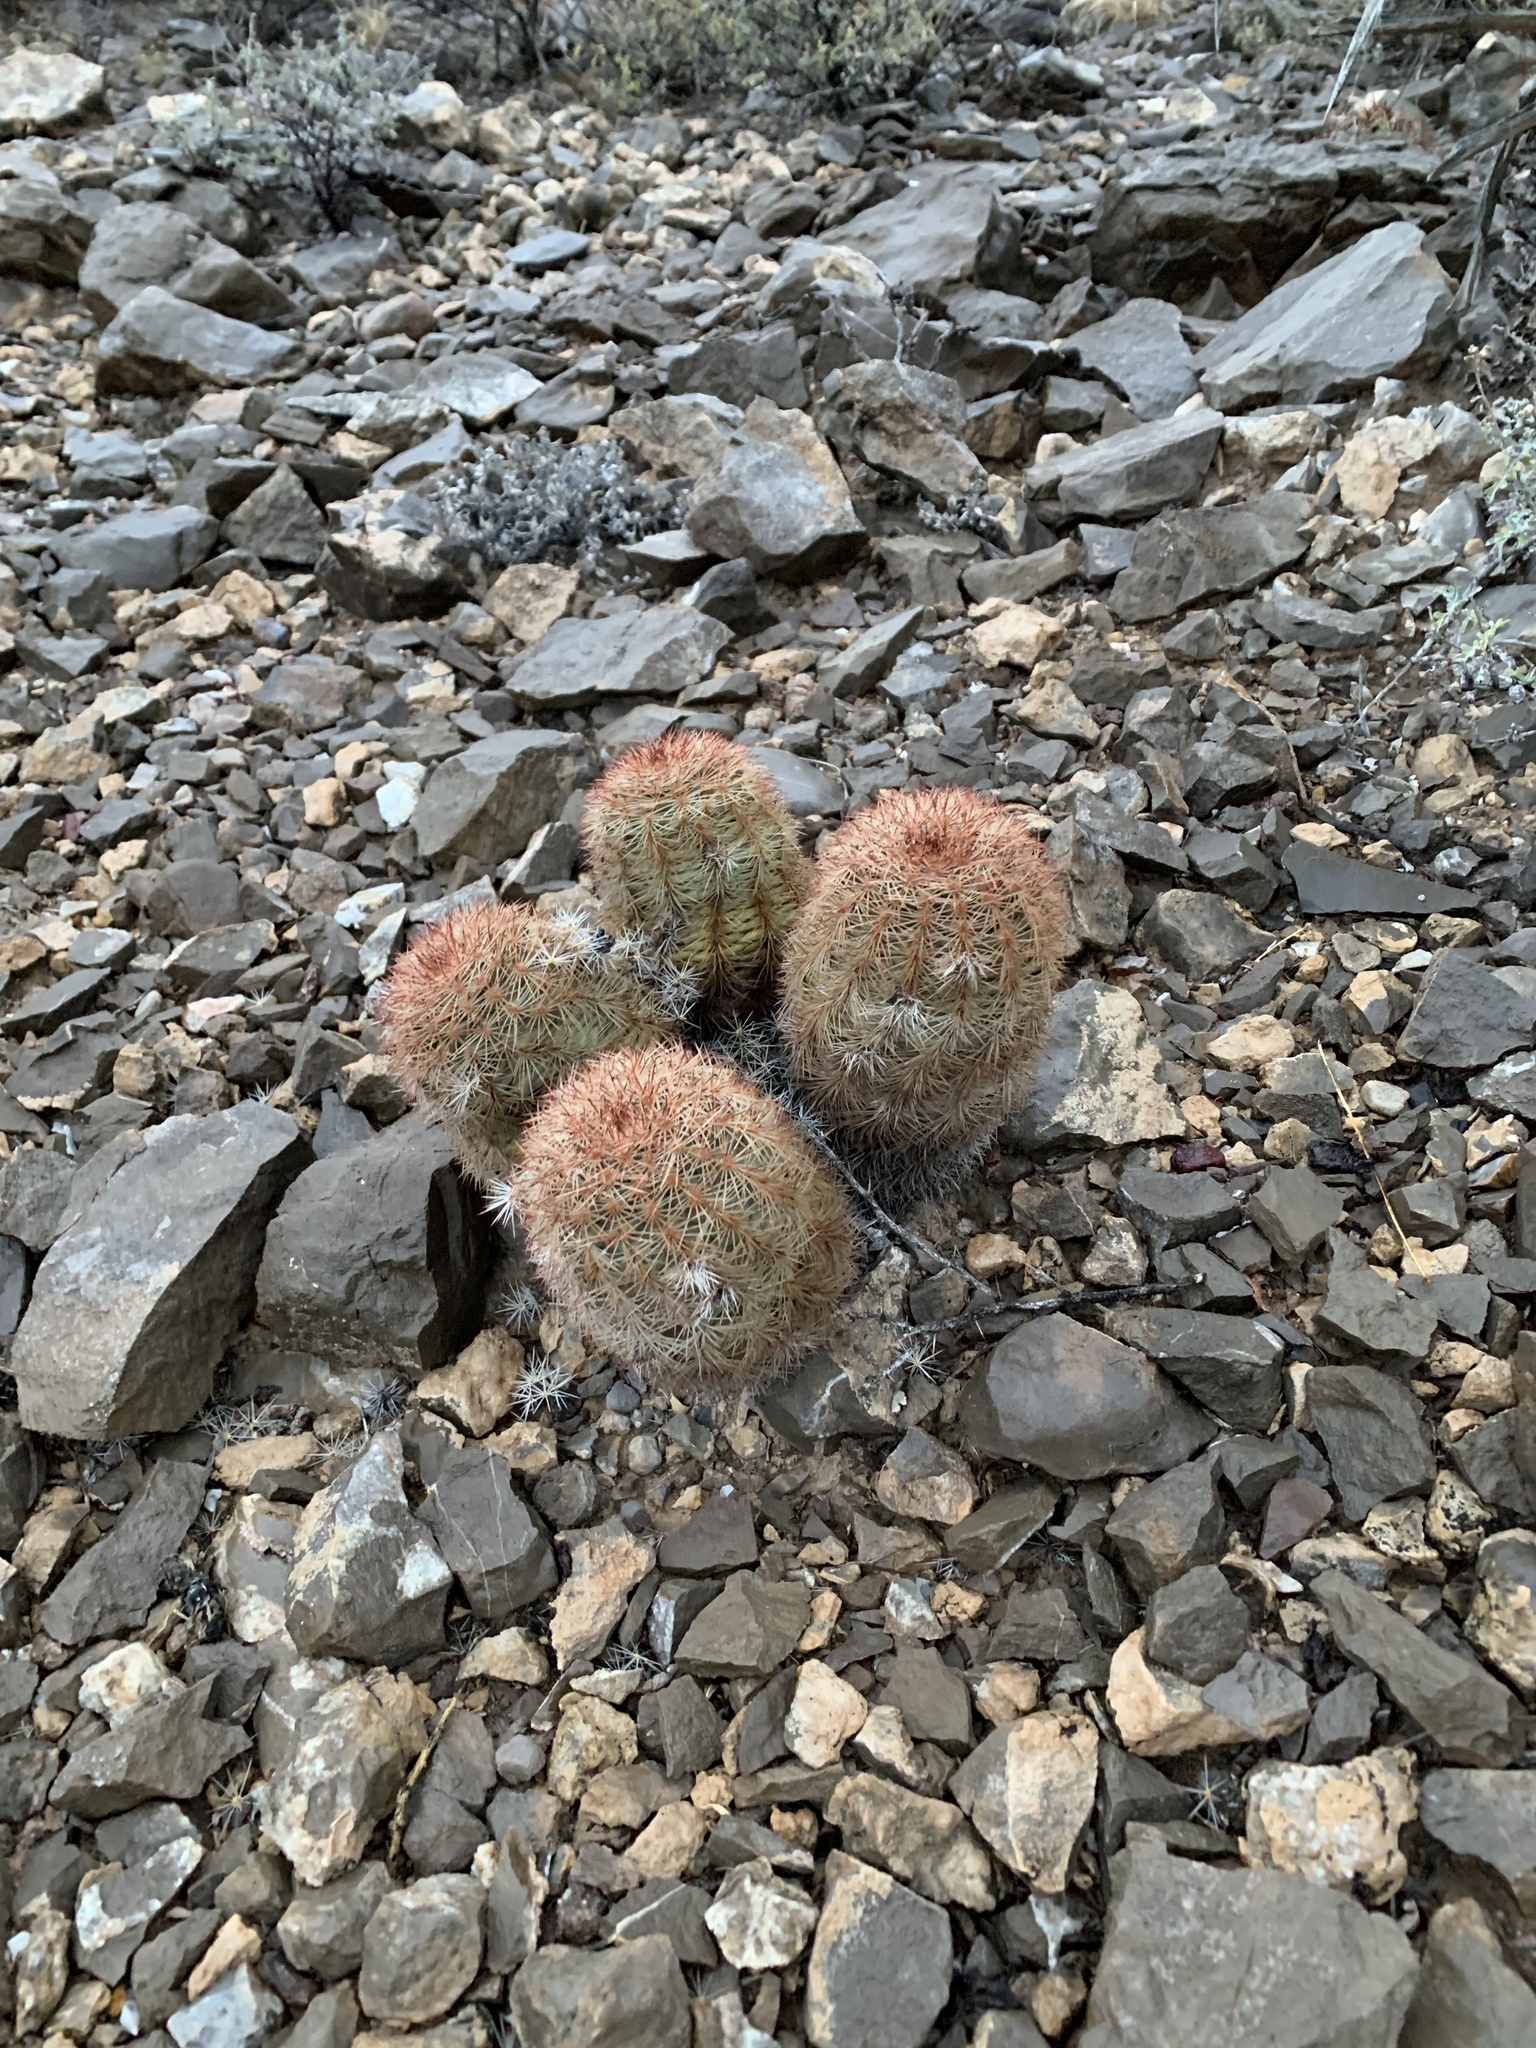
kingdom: Plantae
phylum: Tracheophyta
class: Magnoliopsida
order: Caryophyllales
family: Cactaceae
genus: Echinocereus
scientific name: Echinocereus dasyacanthus
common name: Spiny hedgehog cactus
